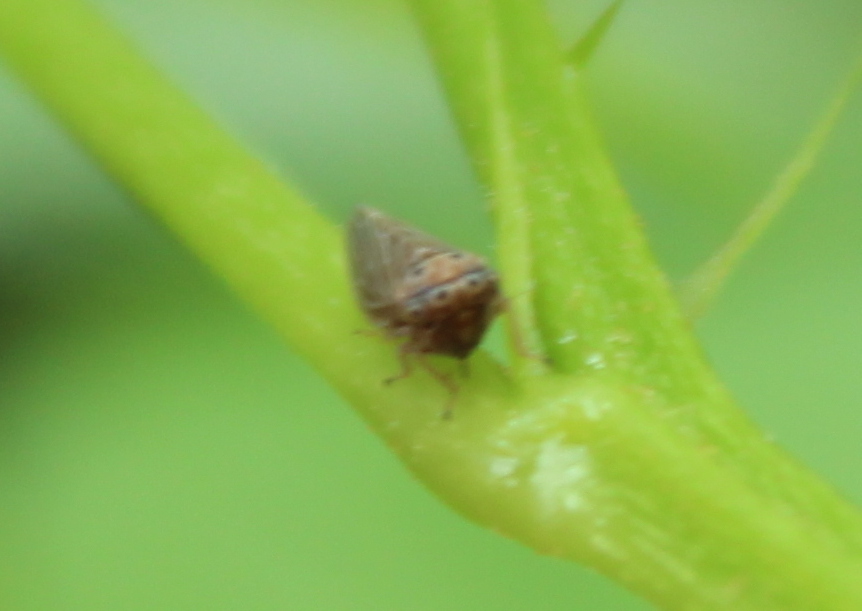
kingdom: Animalia
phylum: Arthropoda
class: Insecta
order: Hemiptera
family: Cicadellidae
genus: Agalliota
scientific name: Agalliota quadripunctata
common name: The four-spotted clover leafhopper
